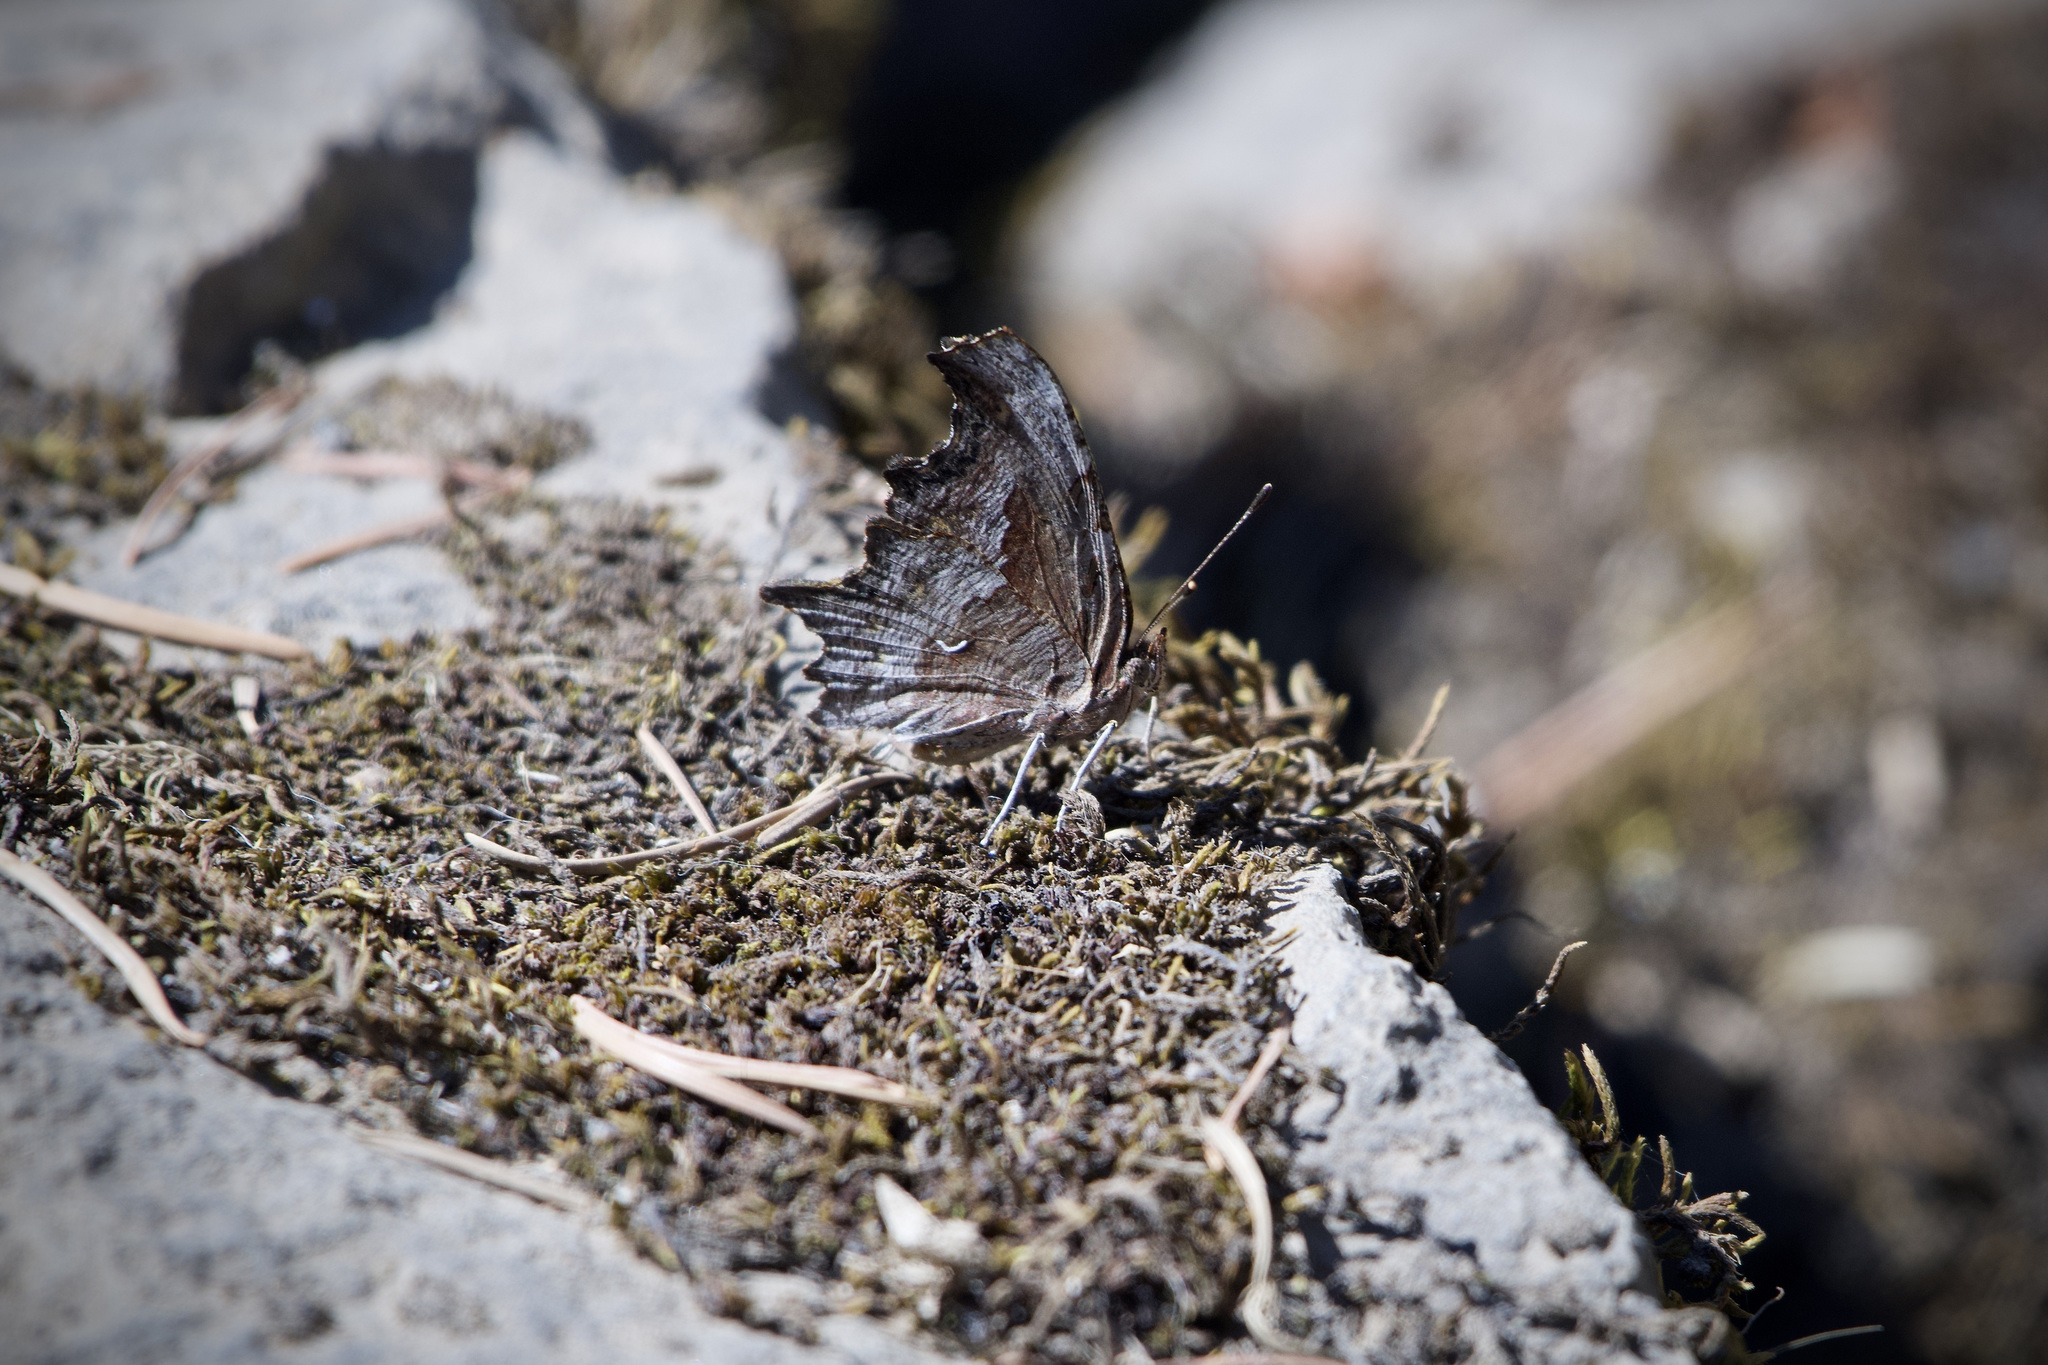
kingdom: Animalia
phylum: Arthropoda
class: Insecta
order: Lepidoptera
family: Nymphalidae
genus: Polygonia
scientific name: Polygonia gracilis
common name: Hoary comma
